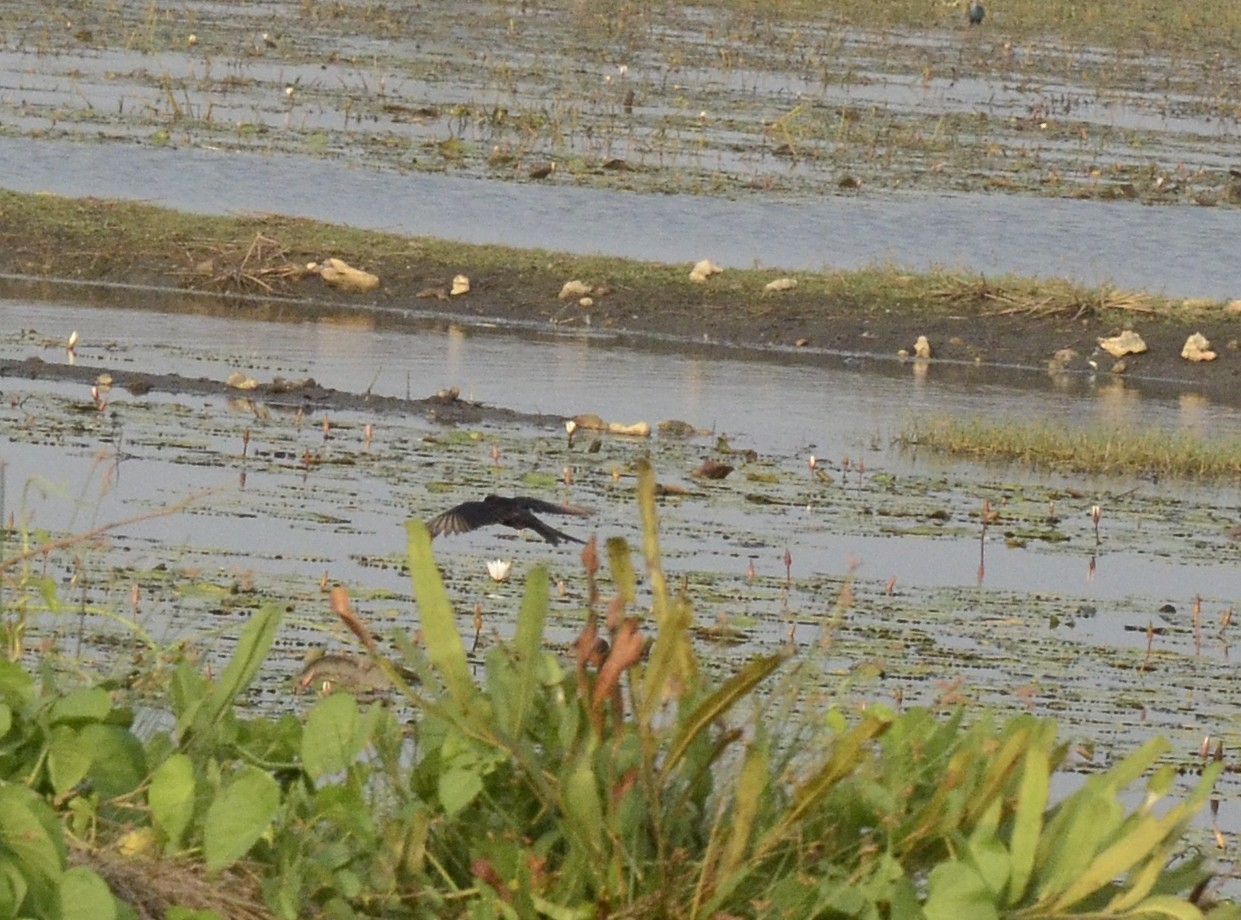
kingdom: Animalia
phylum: Chordata
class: Aves
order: Passeriformes
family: Dicruridae
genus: Dicrurus
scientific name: Dicrurus macrocercus
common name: Black drongo
